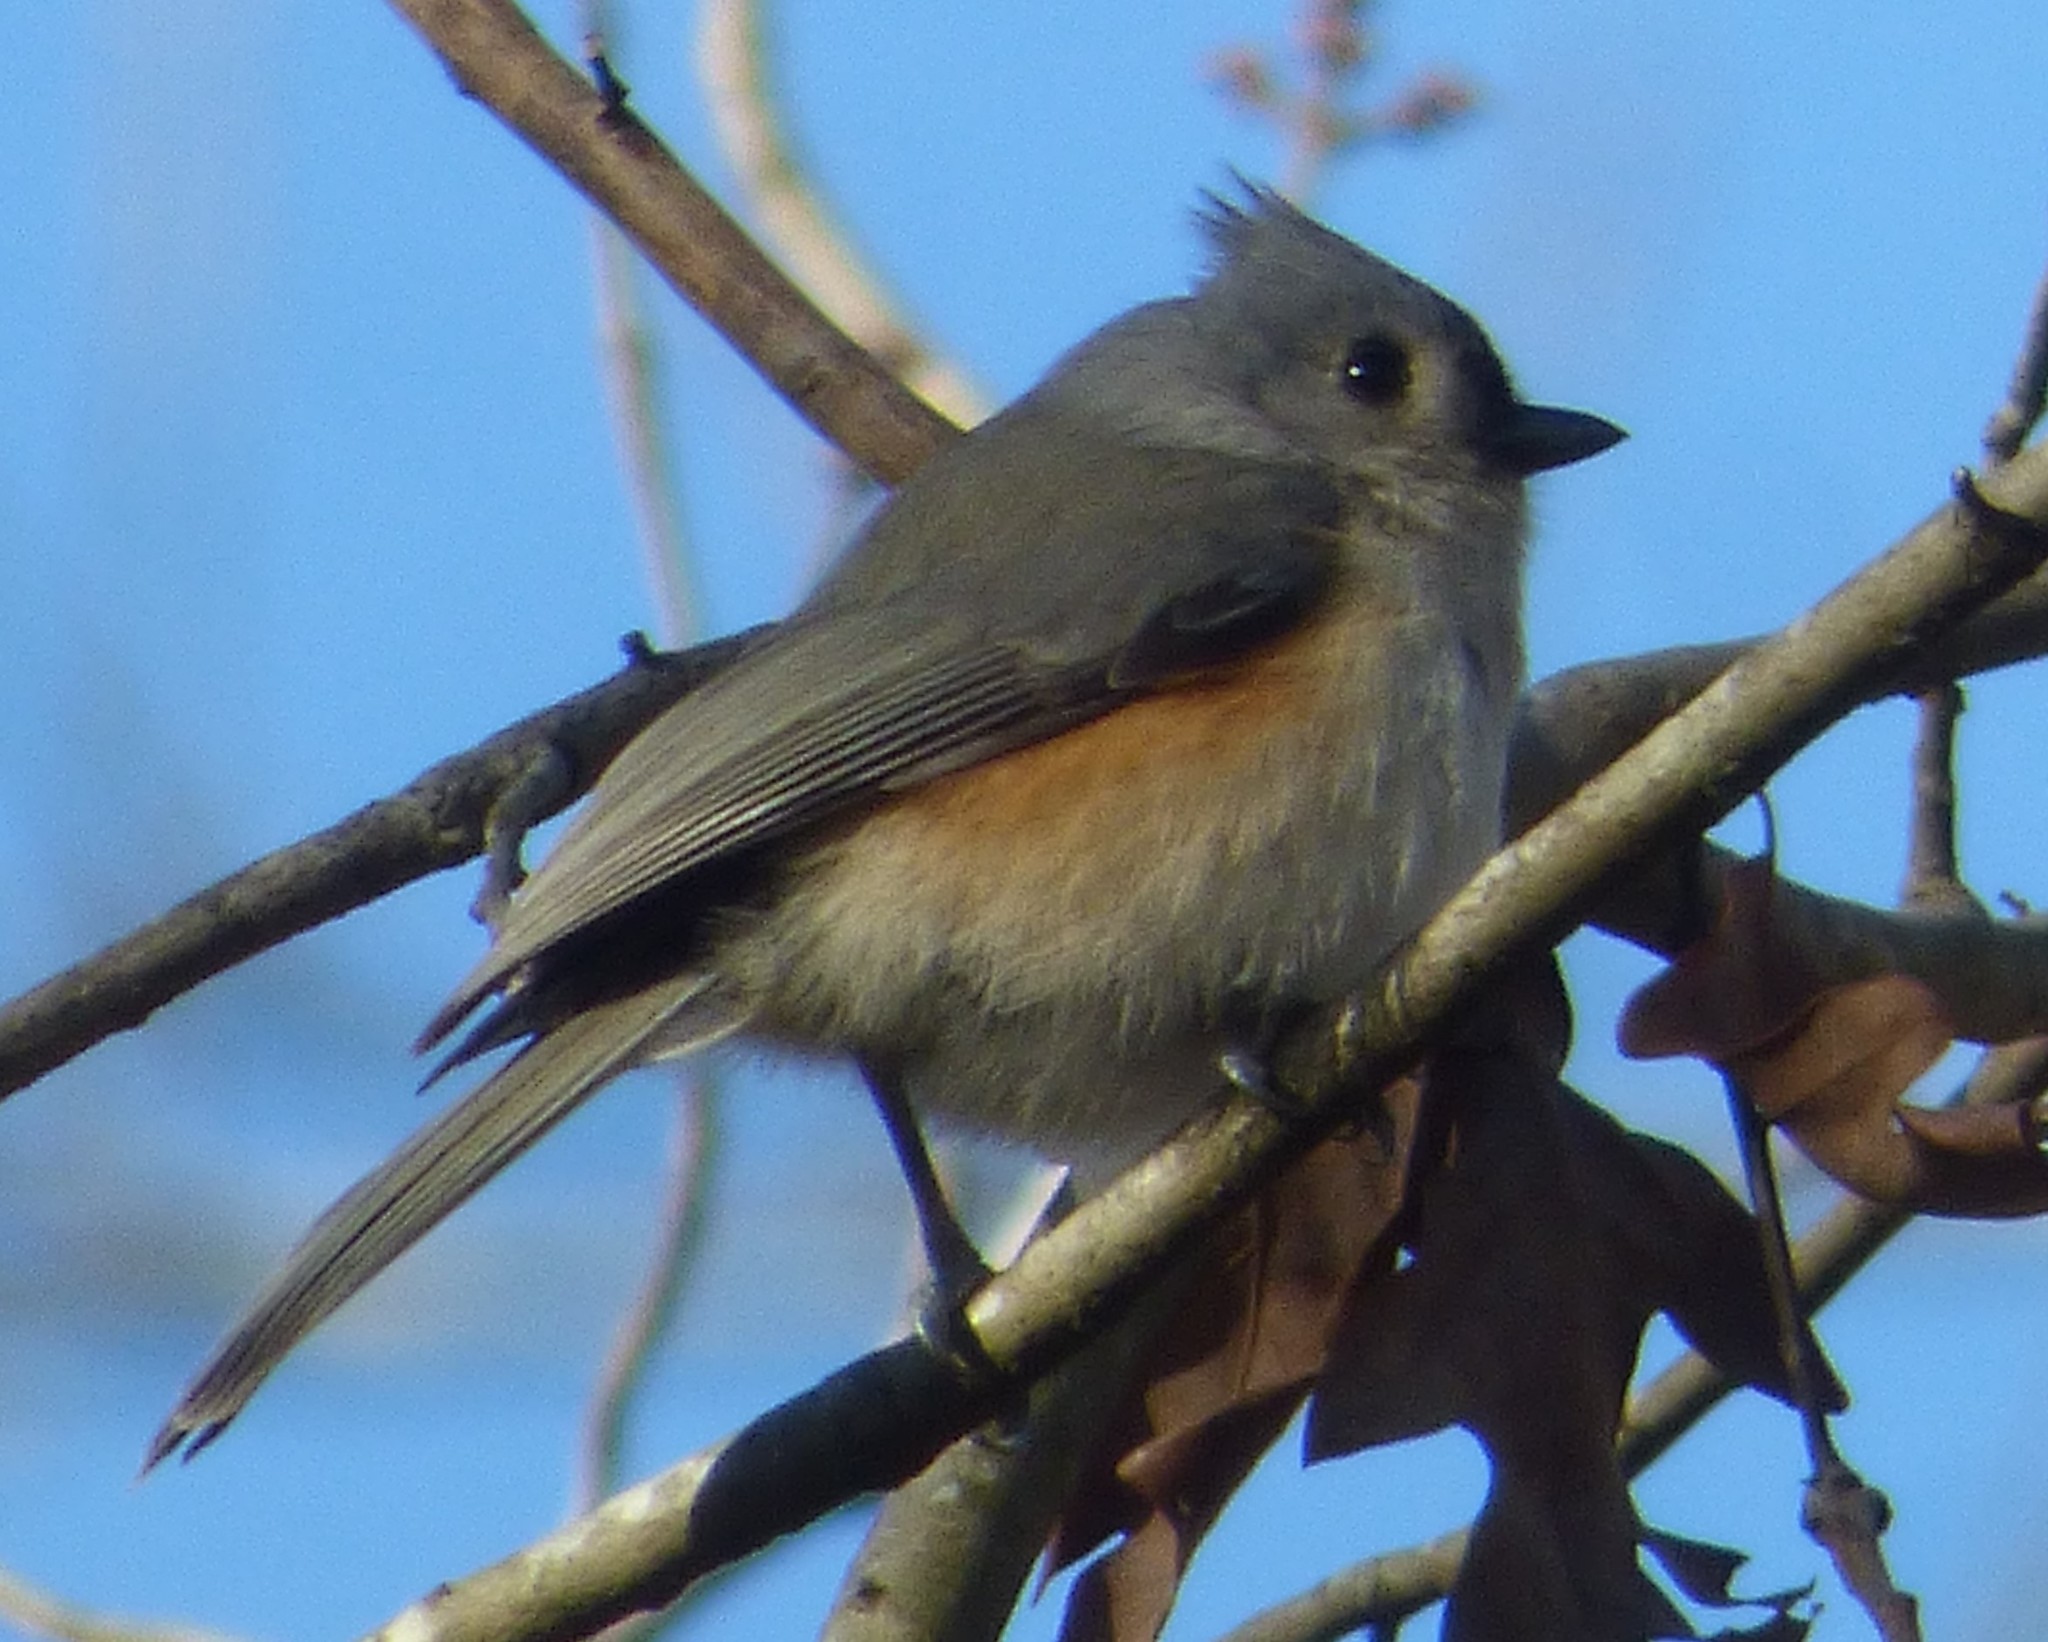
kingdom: Animalia
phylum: Chordata
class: Aves
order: Passeriformes
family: Paridae
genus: Baeolophus
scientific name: Baeolophus bicolor
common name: Tufted titmouse
